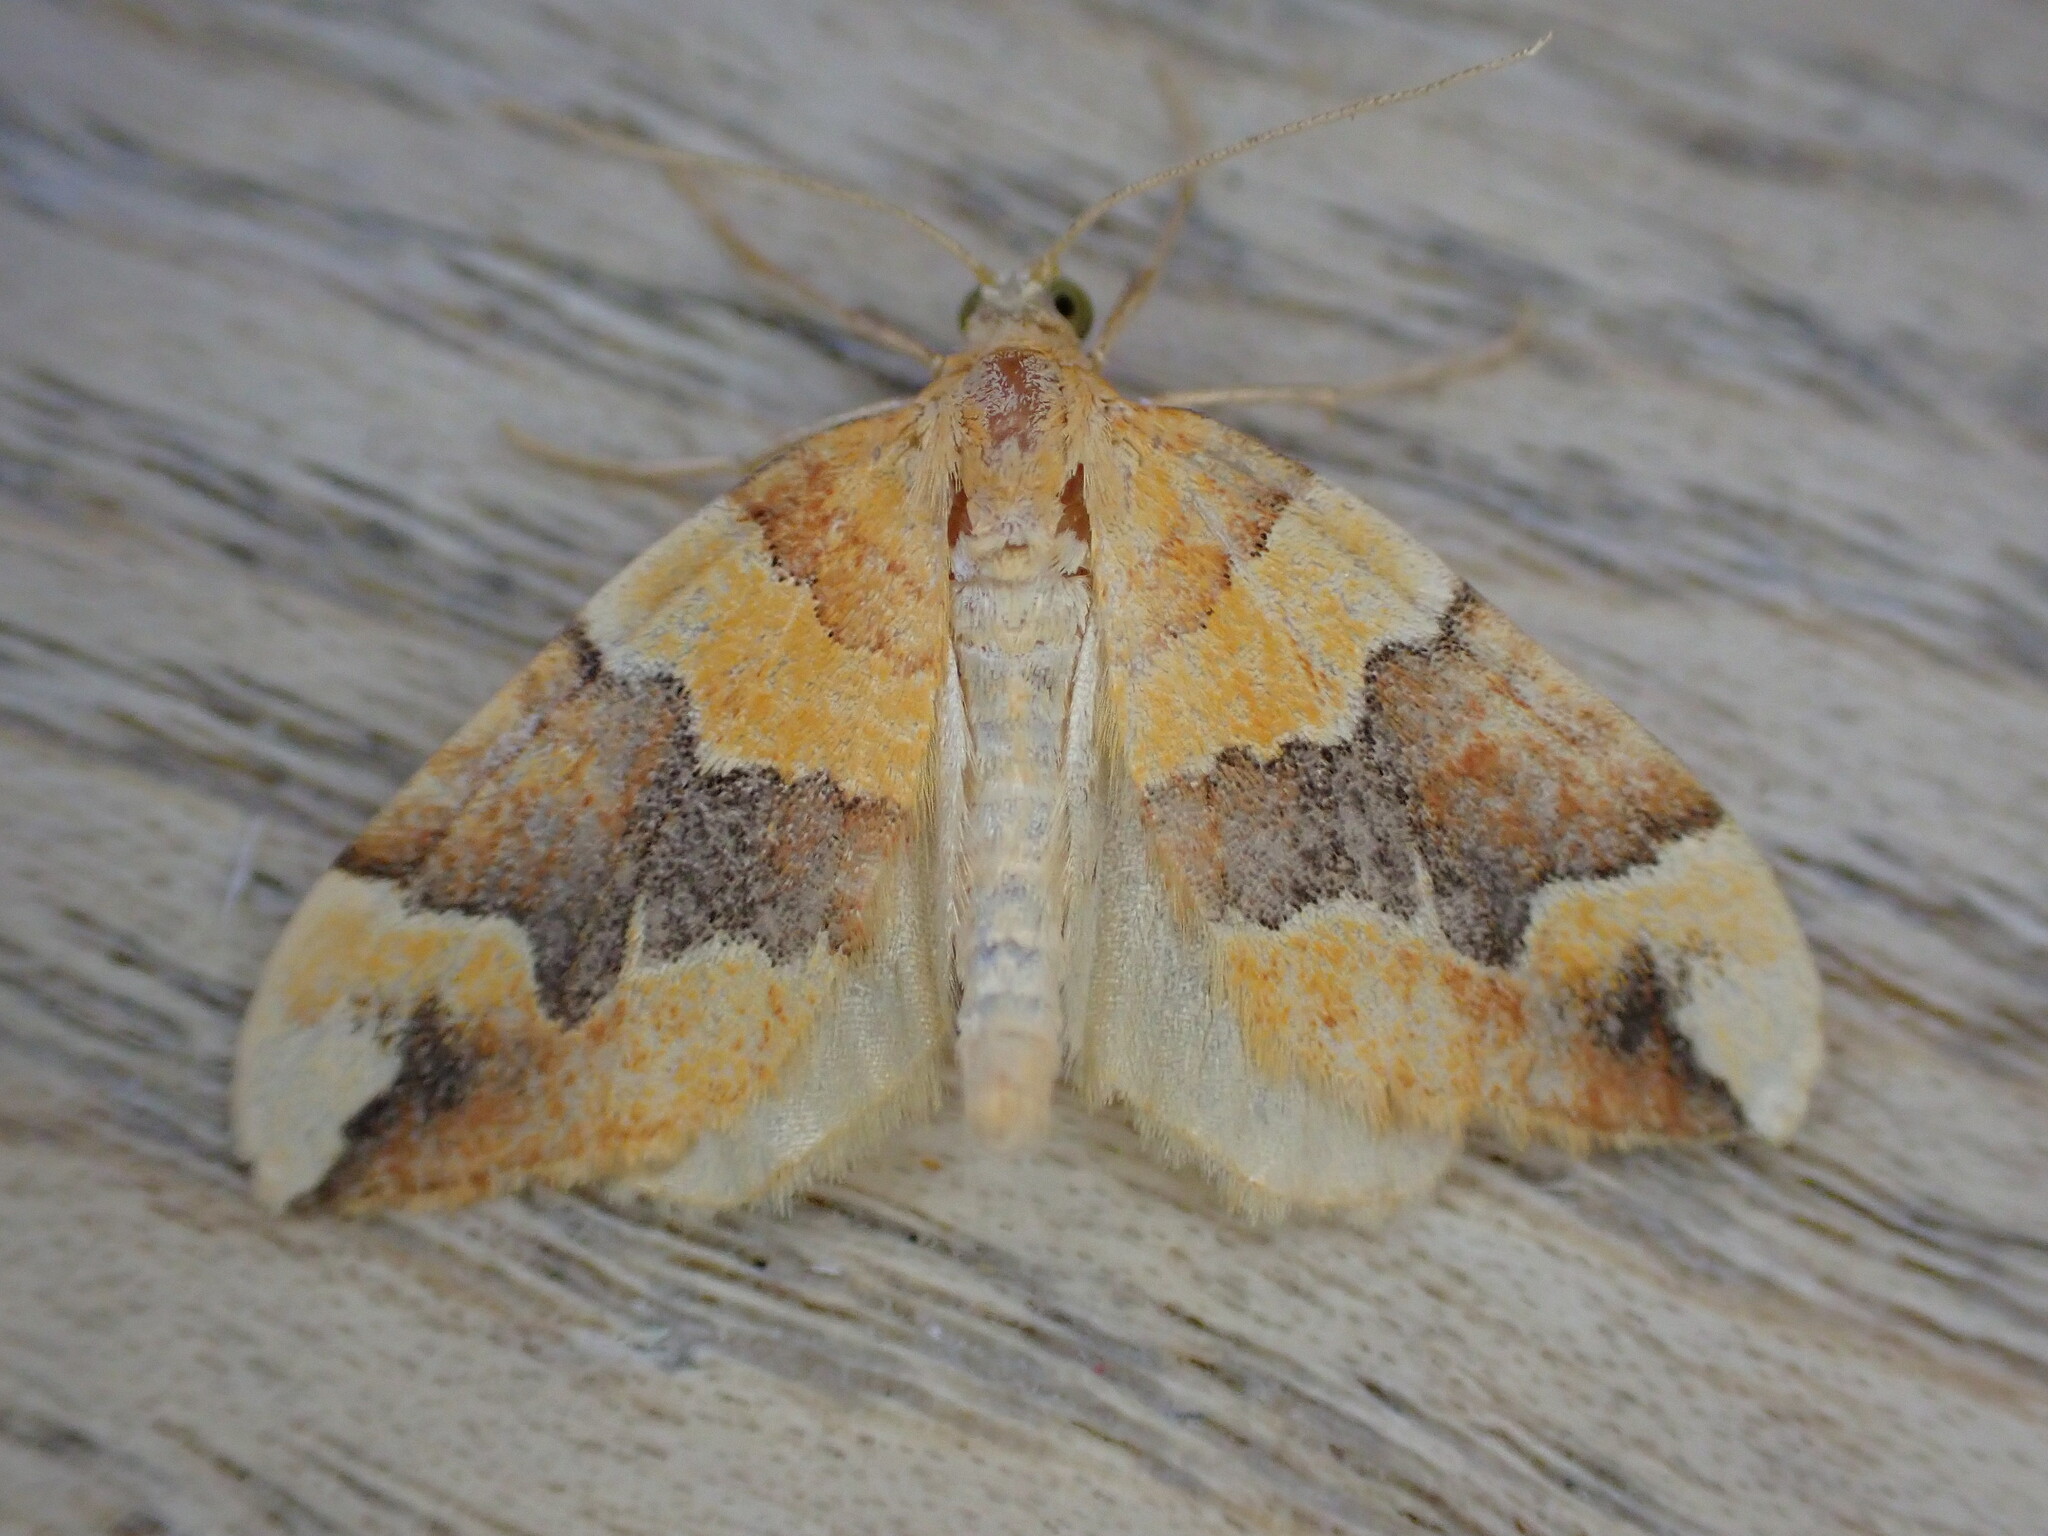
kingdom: Animalia
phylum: Arthropoda
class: Insecta
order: Lepidoptera
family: Geometridae
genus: Cidaria
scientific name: Cidaria fulvata
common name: Barred yellow
